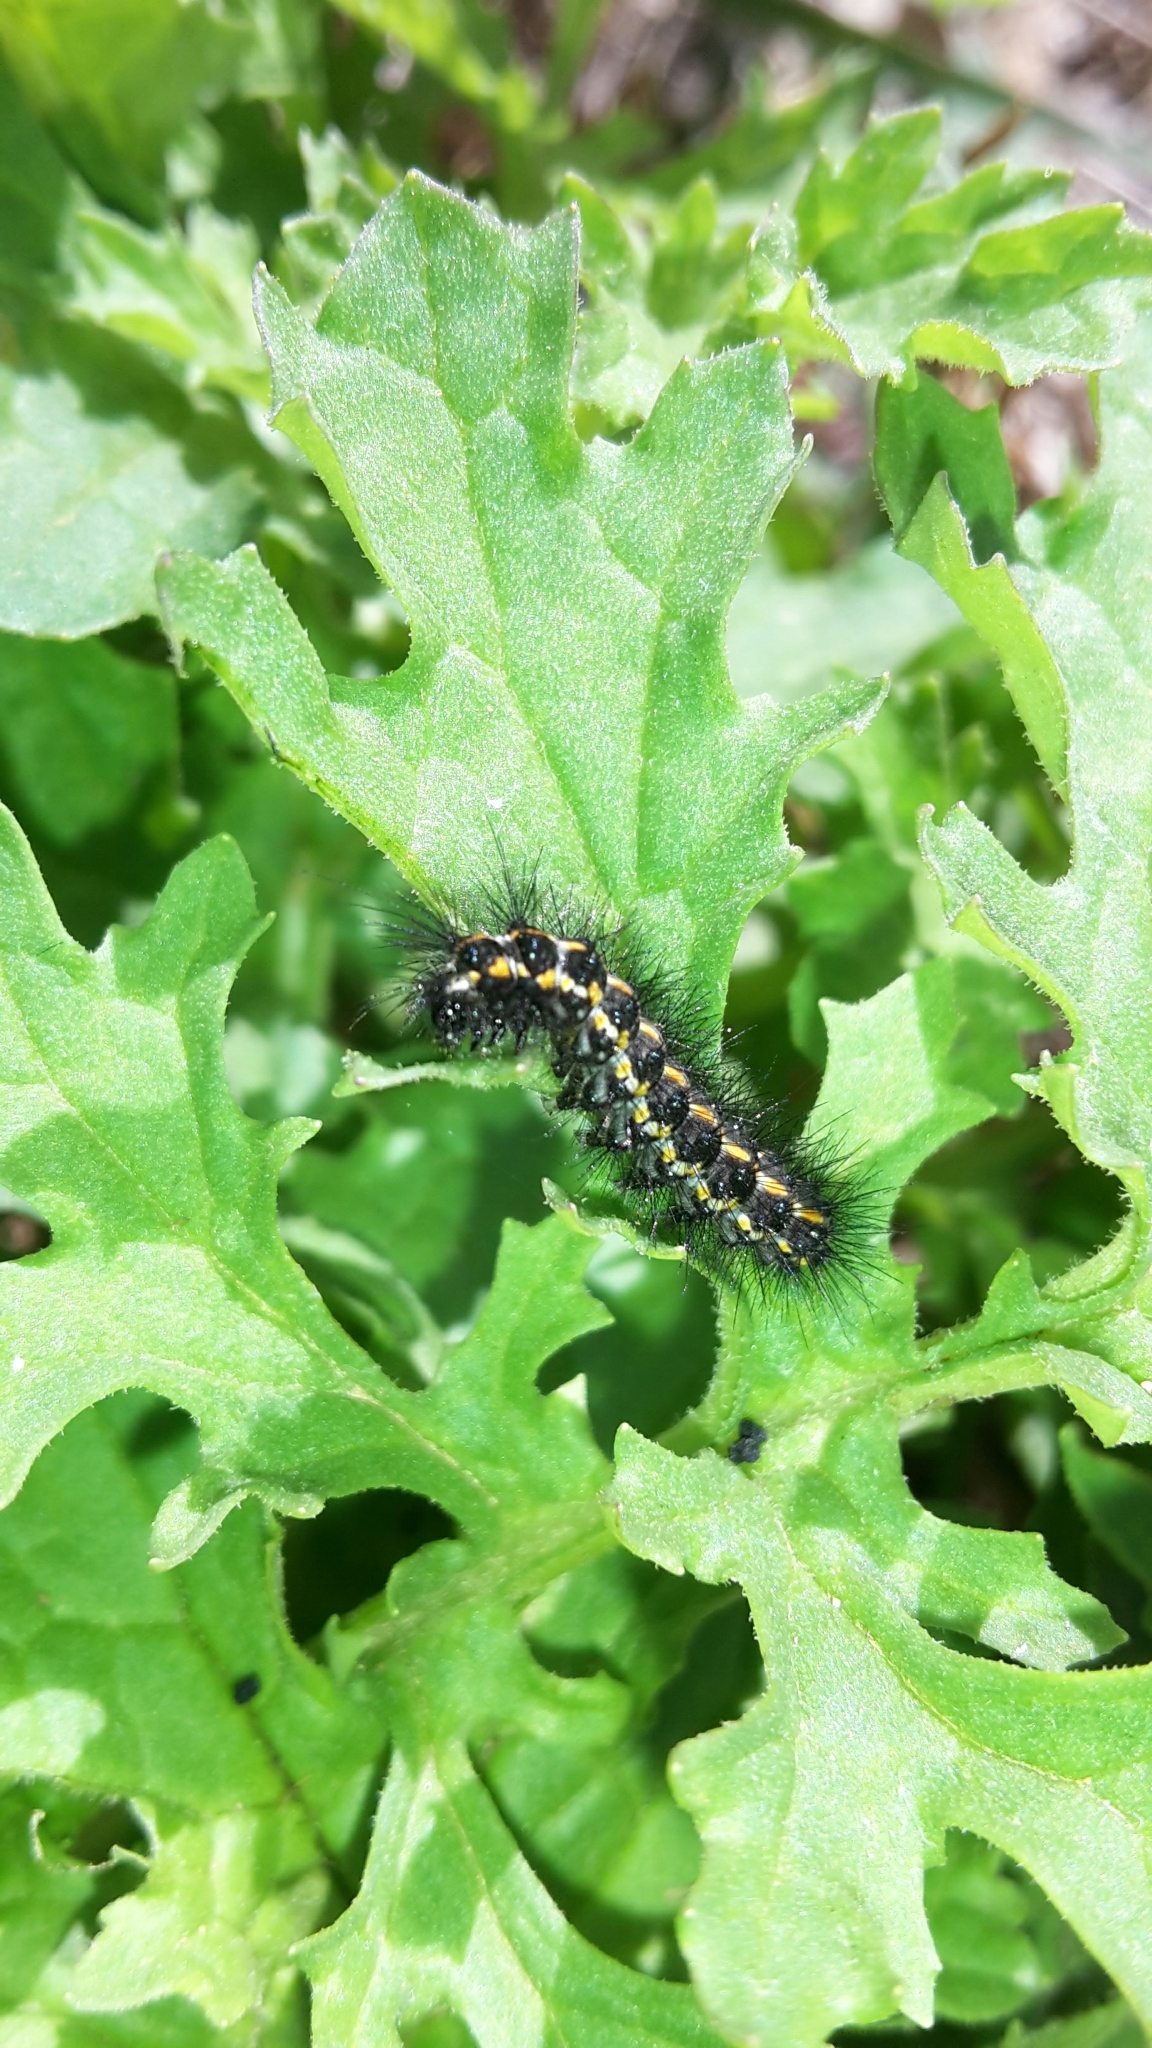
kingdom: Animalia
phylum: Arthropoda
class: Insecta
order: Lepidoptera
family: Erebidae
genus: Nyctemera
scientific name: Nyctemera annulatum
